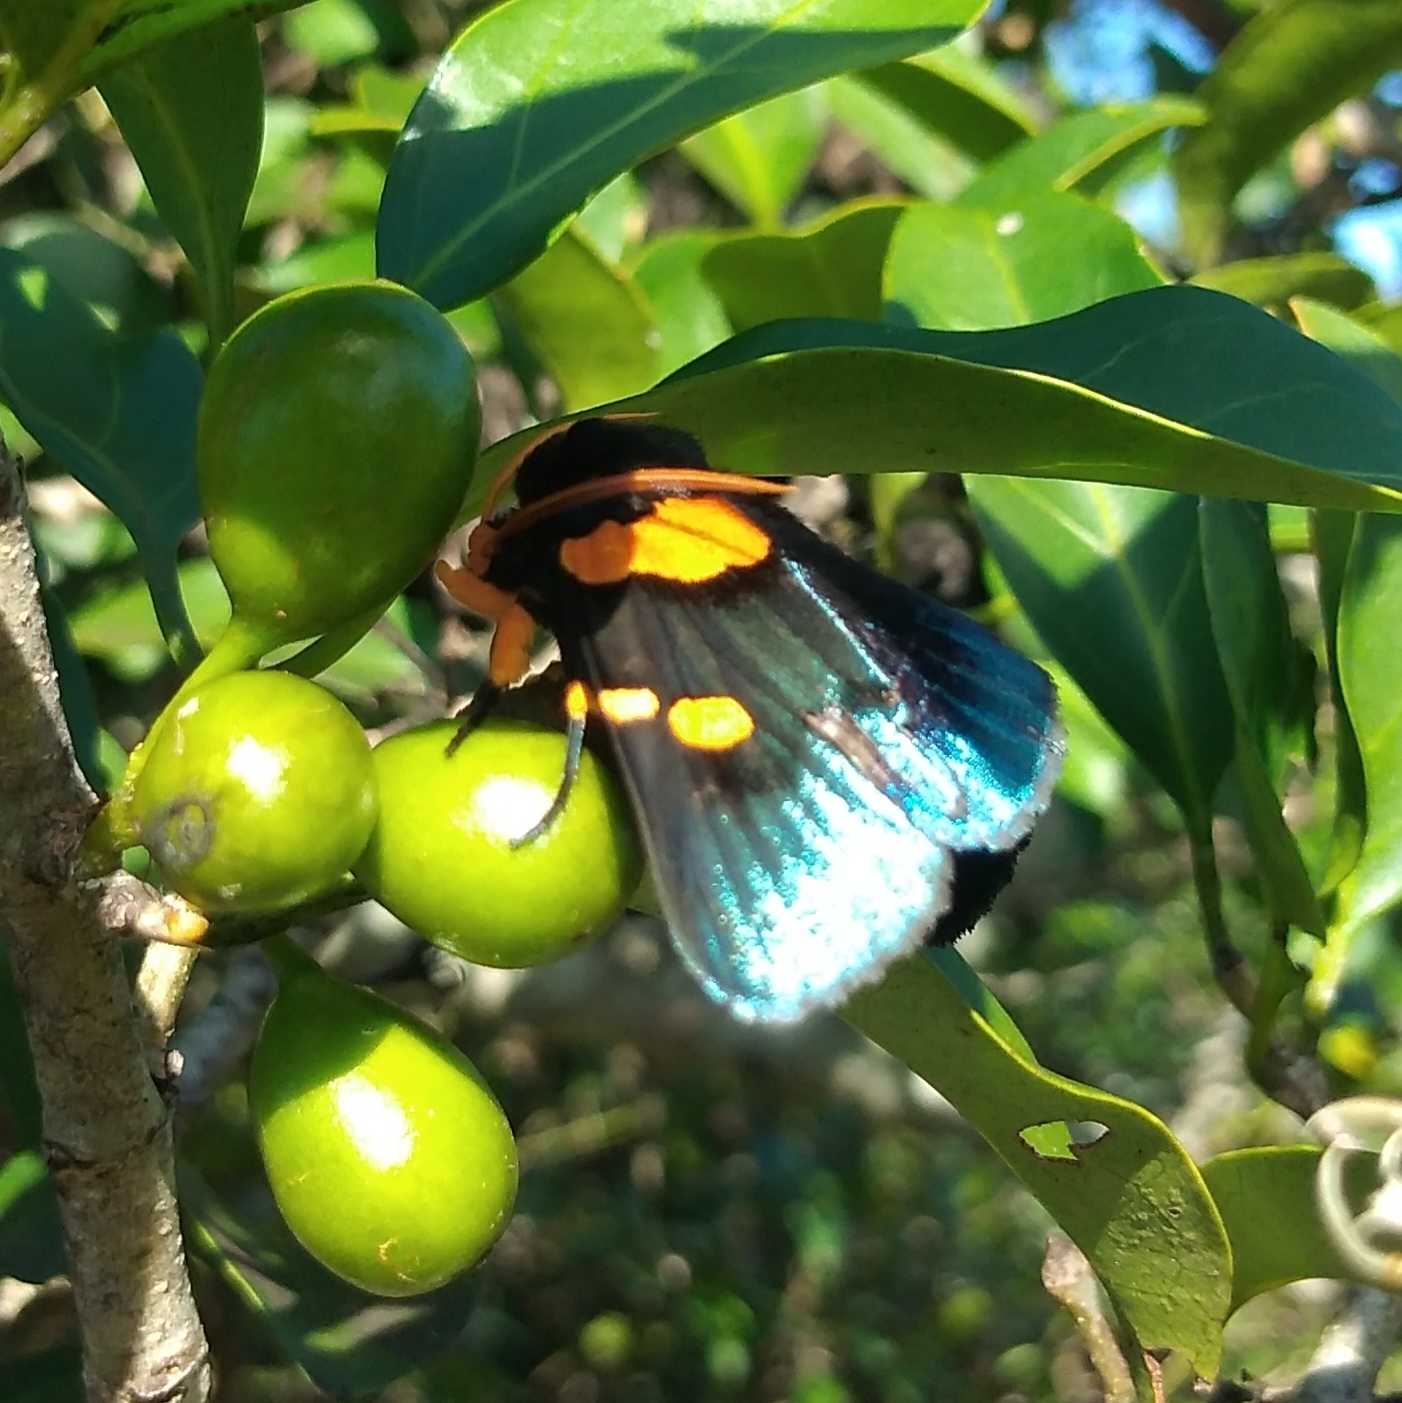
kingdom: Animalia
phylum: Arthropoda
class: Insecta
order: Lepidoptera
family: Erebidae
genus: Egybolis
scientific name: Egybolis vaillantina
